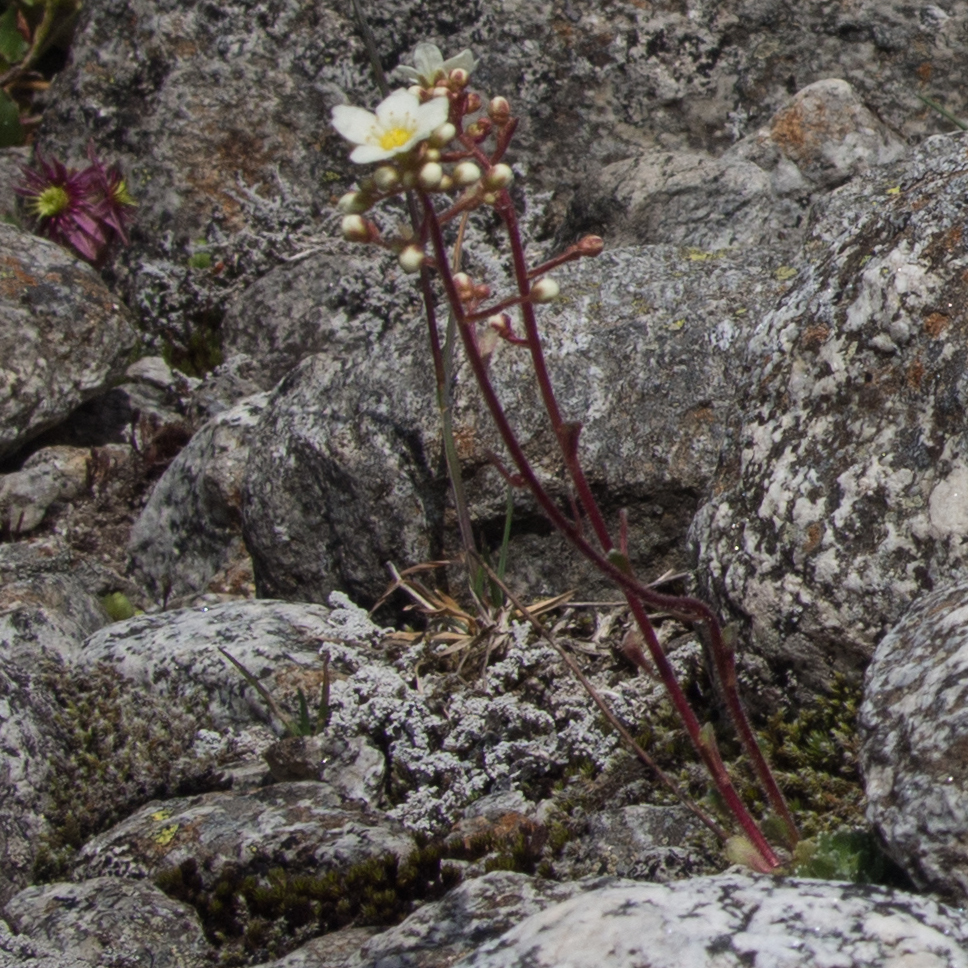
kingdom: Plantae
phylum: Tracheophyta
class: Magnoliopsida
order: Saxifragales
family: Saxifragaceae
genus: Saxifraga
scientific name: Saxifraga paniculata
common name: Livelong saxifrage
